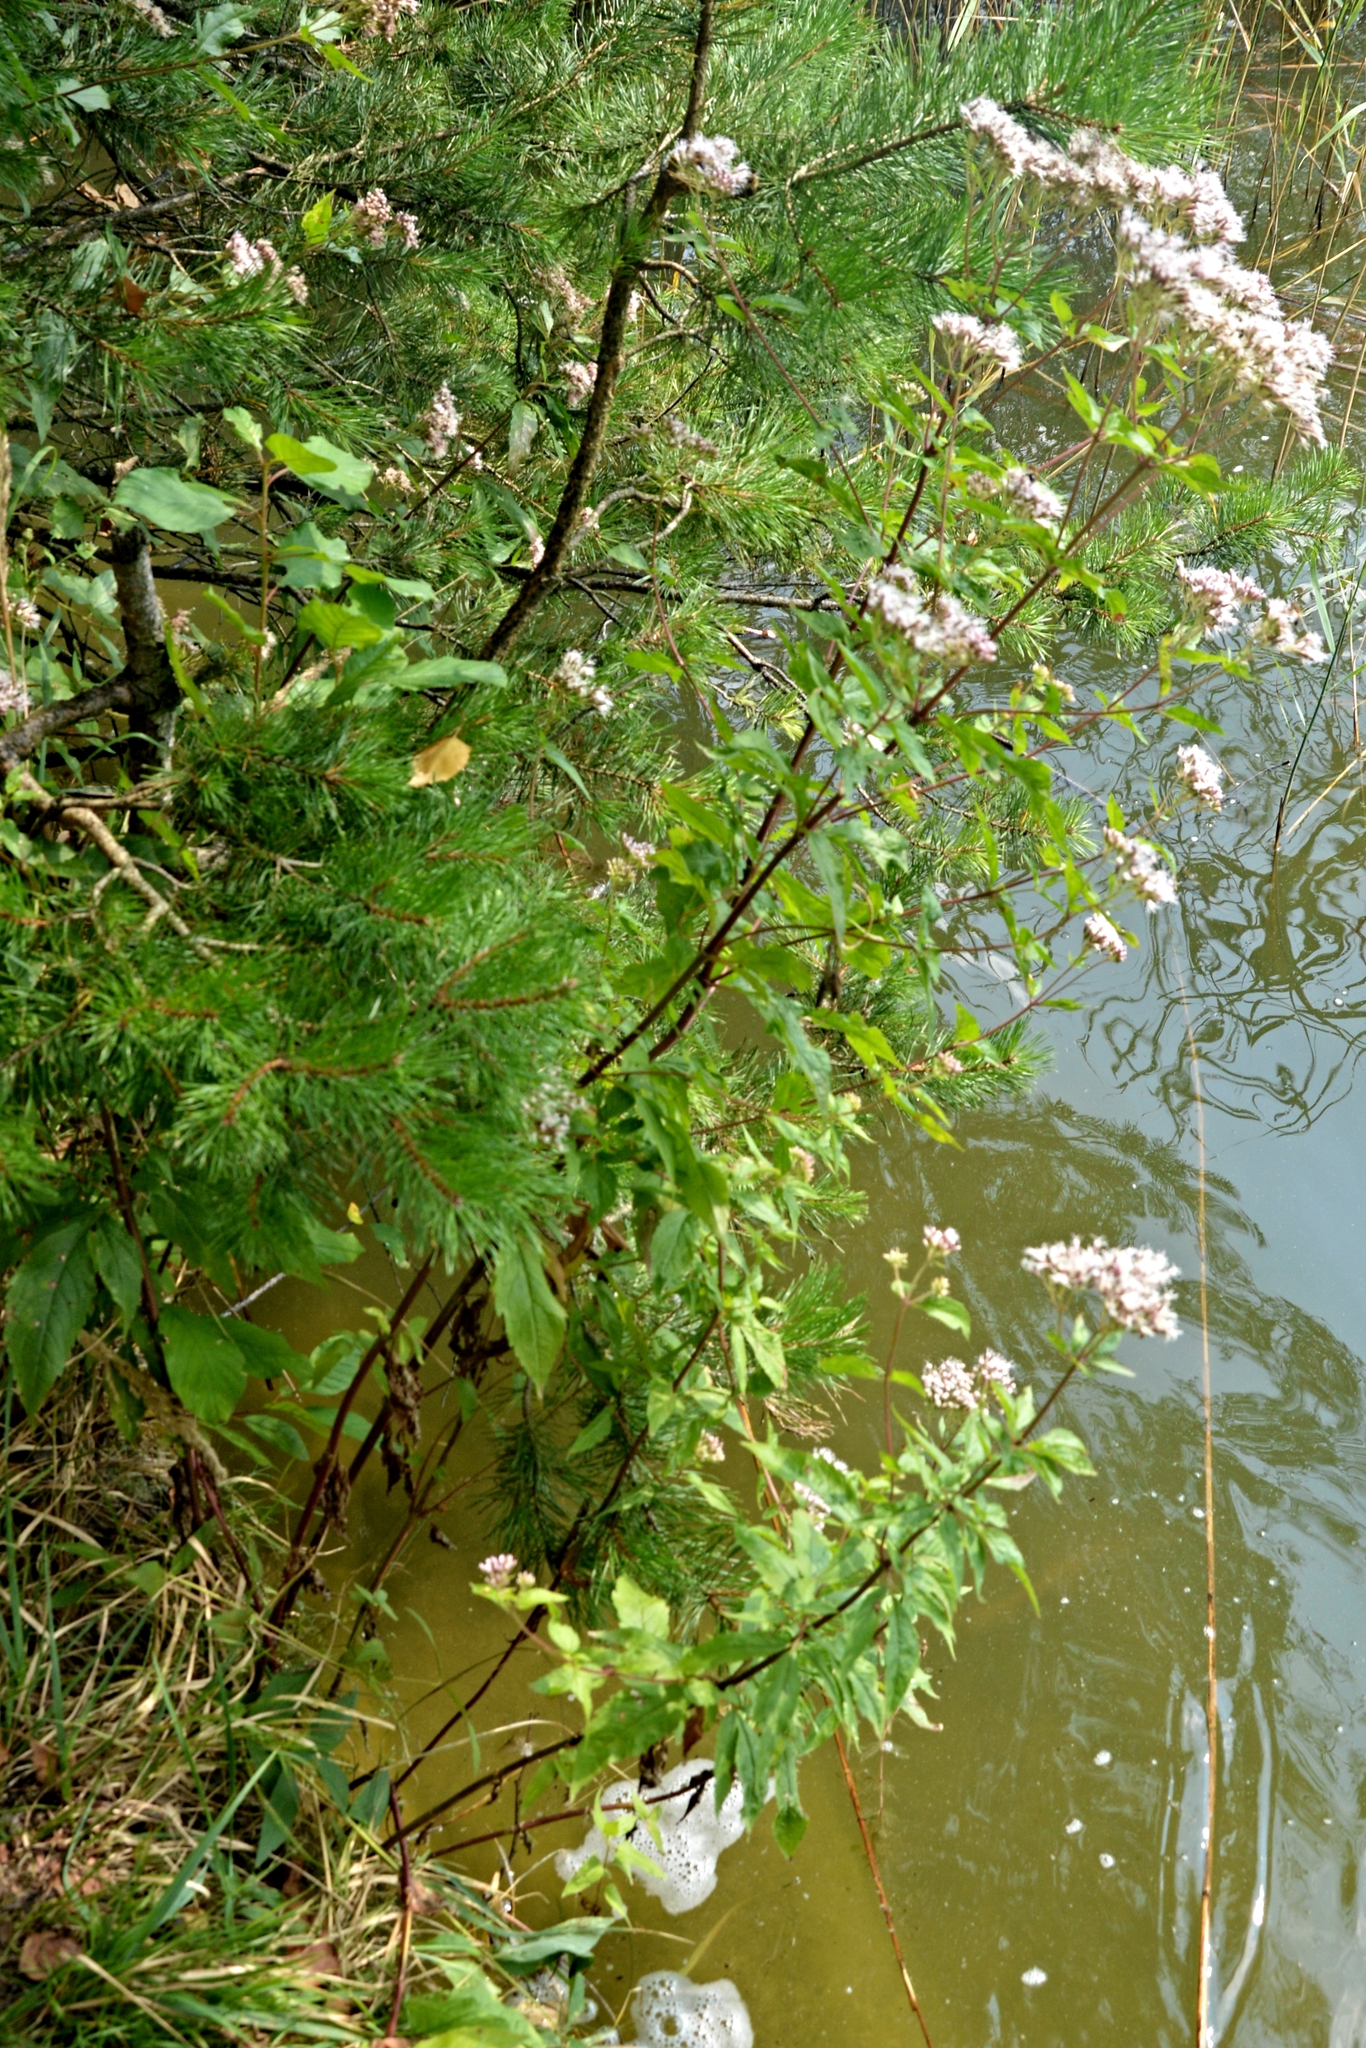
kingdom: Plantae
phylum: Tracheophyta
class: Magnoliopsida
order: Asterales
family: Asteraceae
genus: Eupatorium
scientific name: Eupatorium cannabinum
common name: Hemp-agrimony
